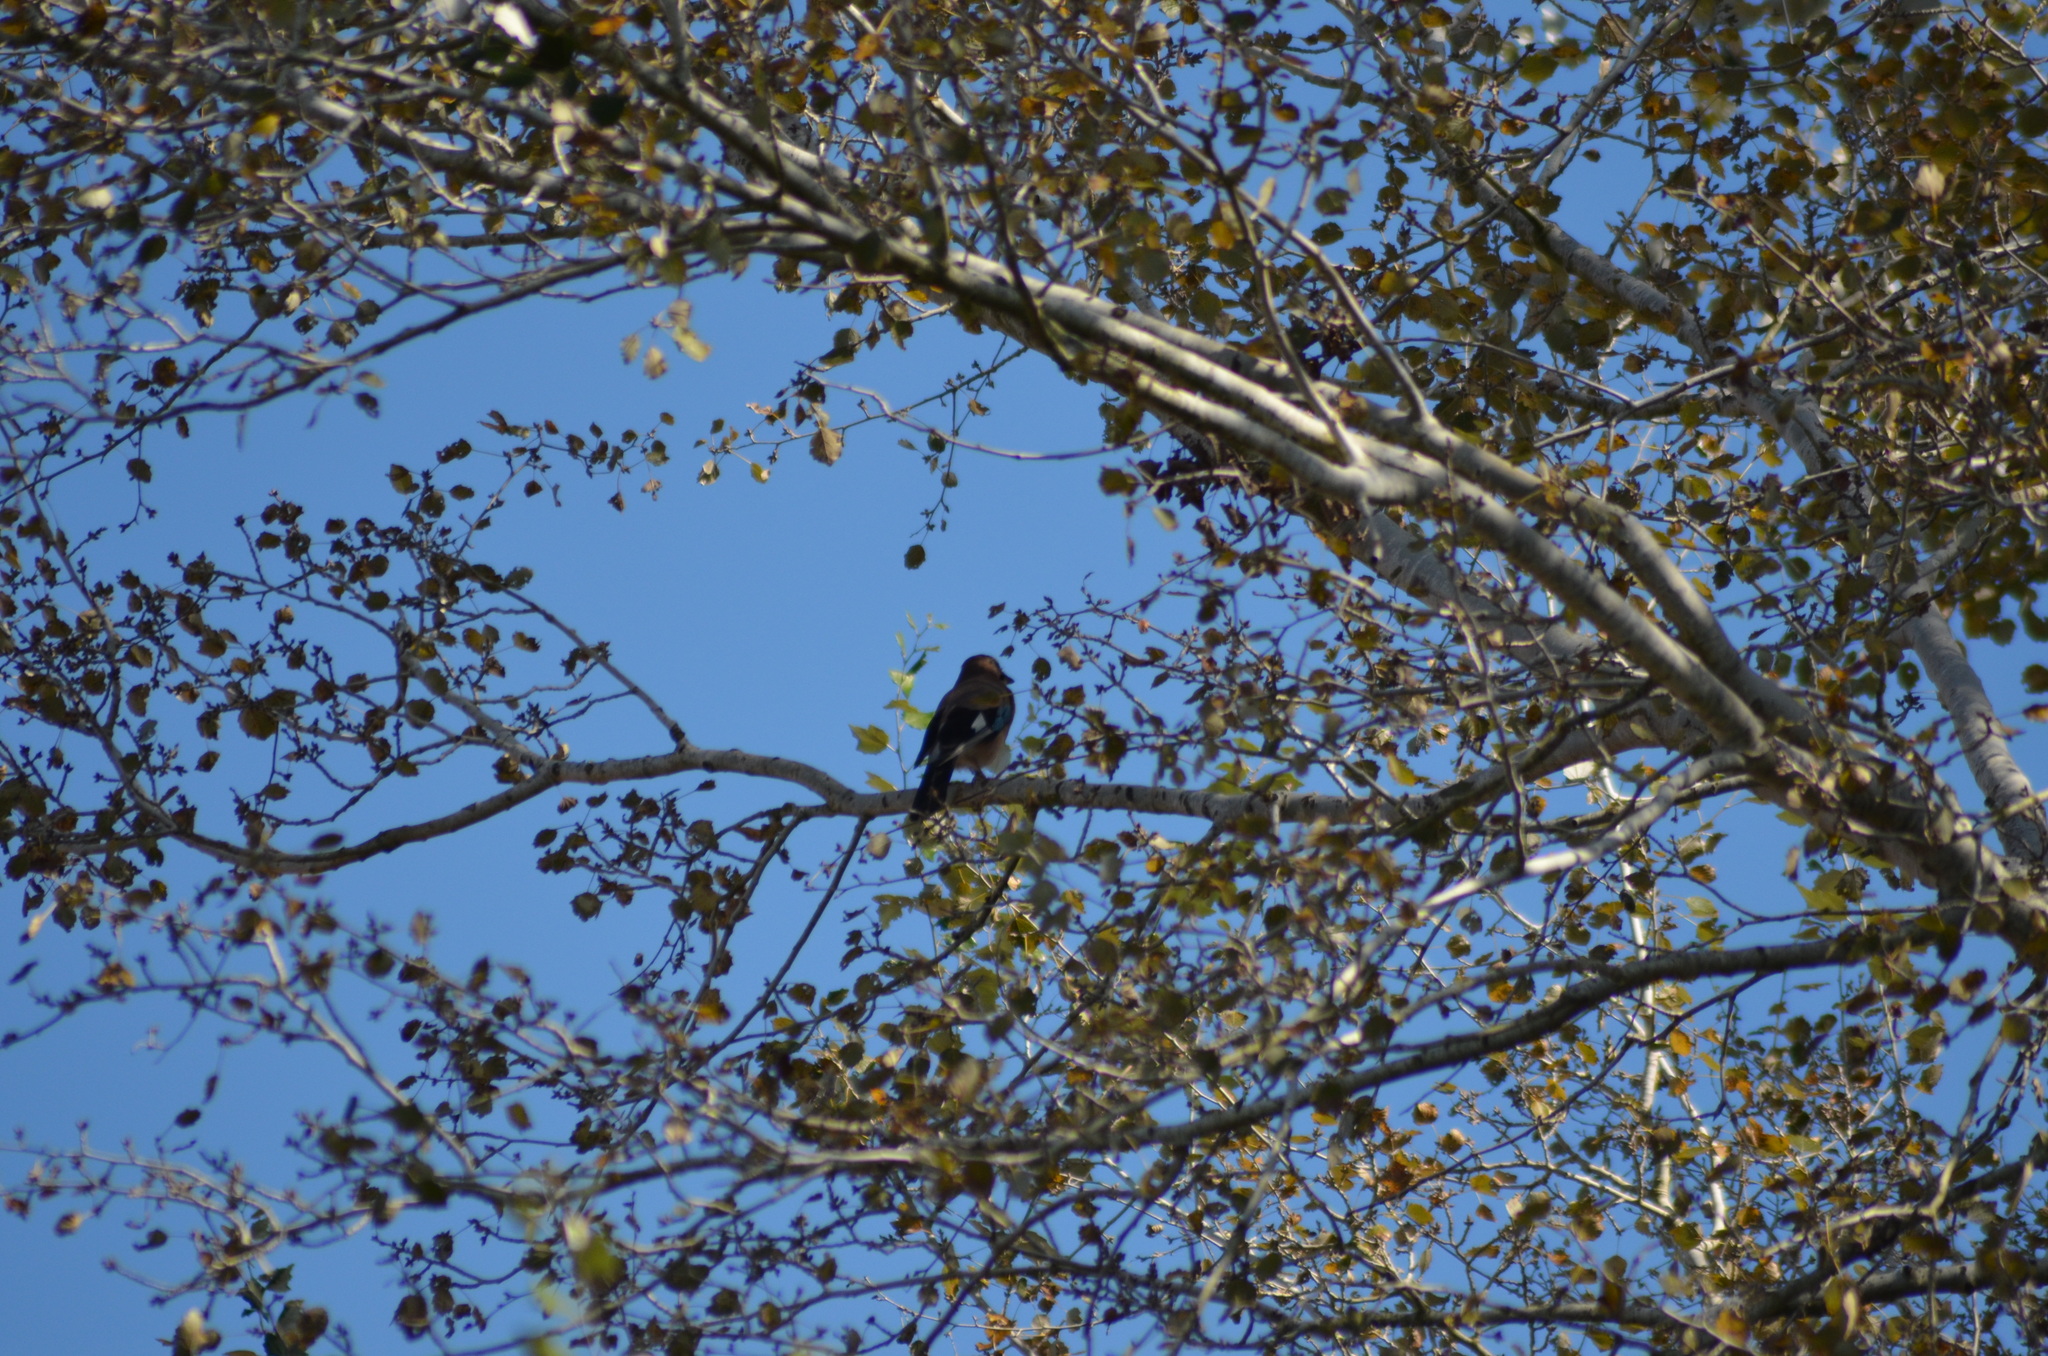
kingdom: Animalia
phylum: Chordata
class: Aves
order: Passeriformes
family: Corvidae
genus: Garrulus
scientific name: Garrulus glandarius
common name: Eurasian jay
